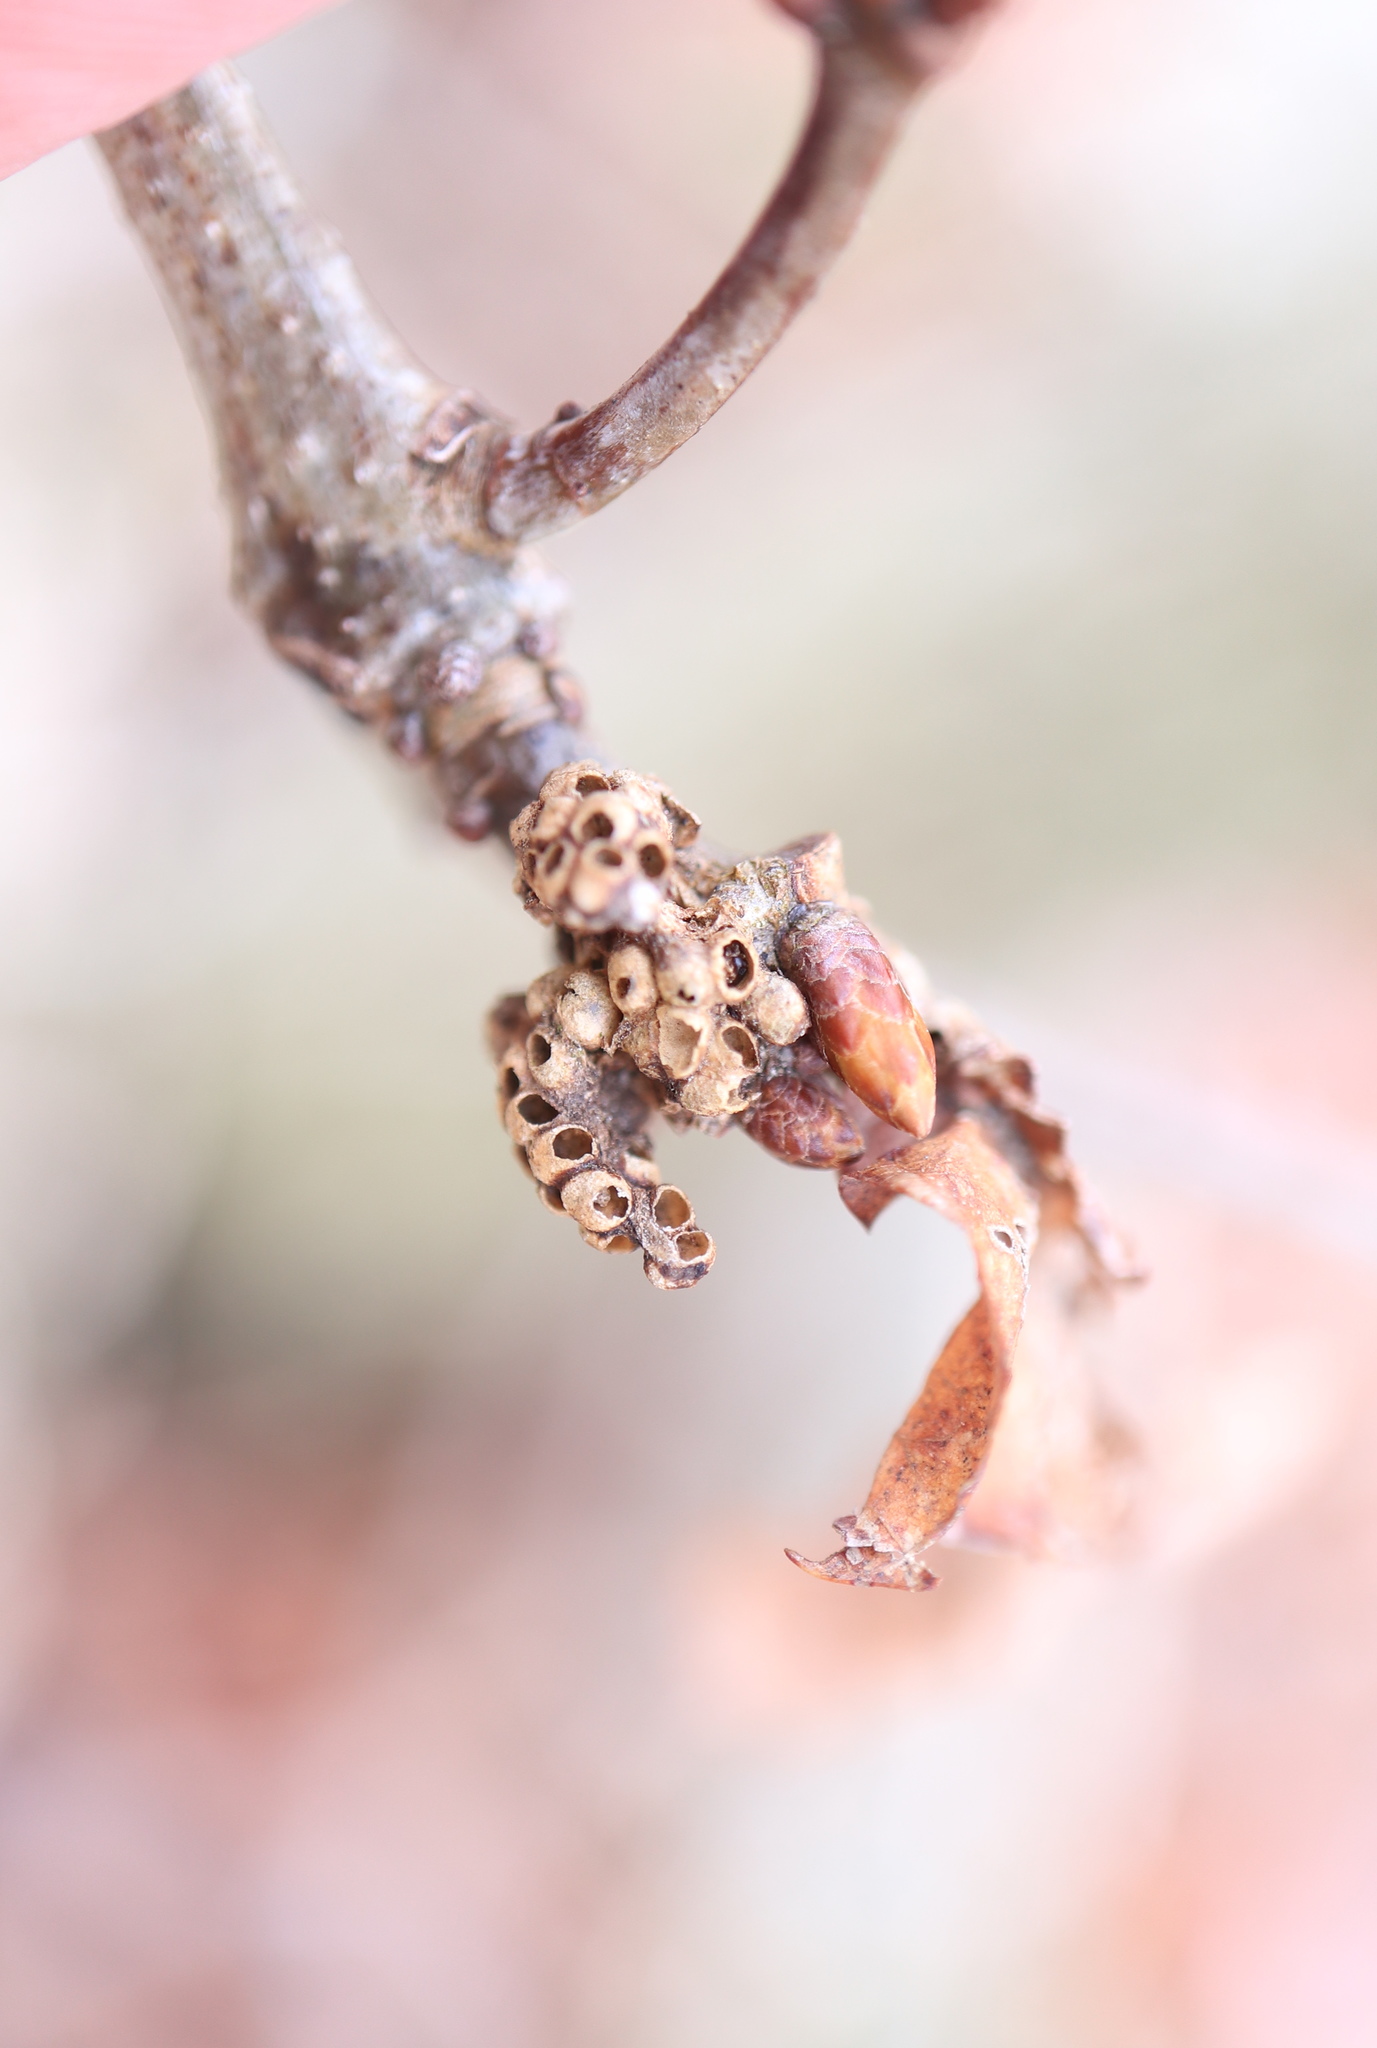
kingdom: Animalia
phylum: Arthropoda
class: Insecta
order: Hymenoptera
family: Cynipidae
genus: Neuroterus
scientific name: Neuroterus minutulus
